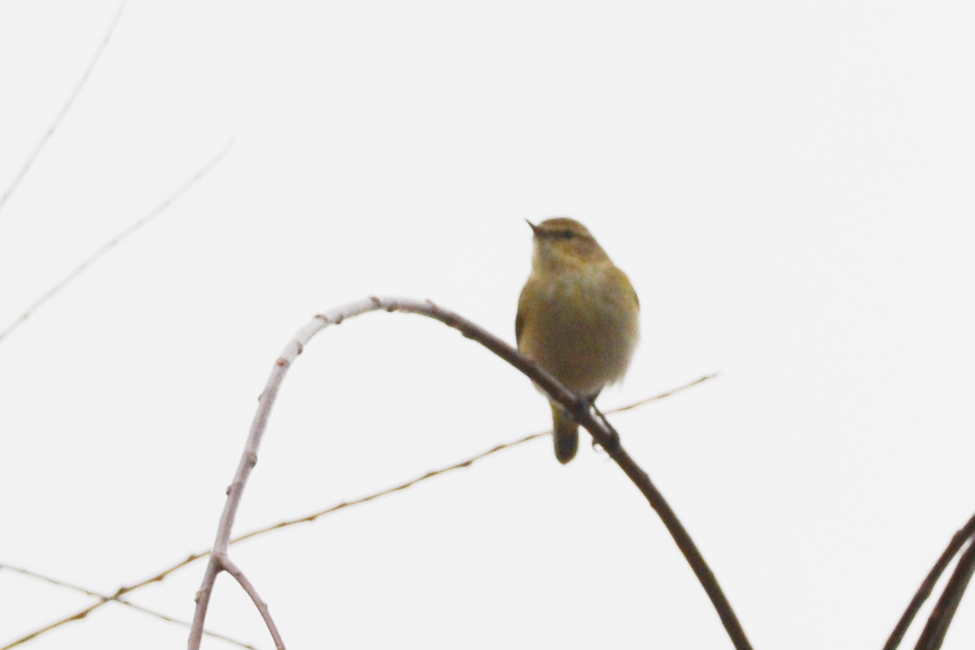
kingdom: Animalia
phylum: Chordata
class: Aves
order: Passeriformes
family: Phylloscopidae
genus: Phylloscopus
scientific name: Phylloscopus collybita
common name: Common chiffchaff
